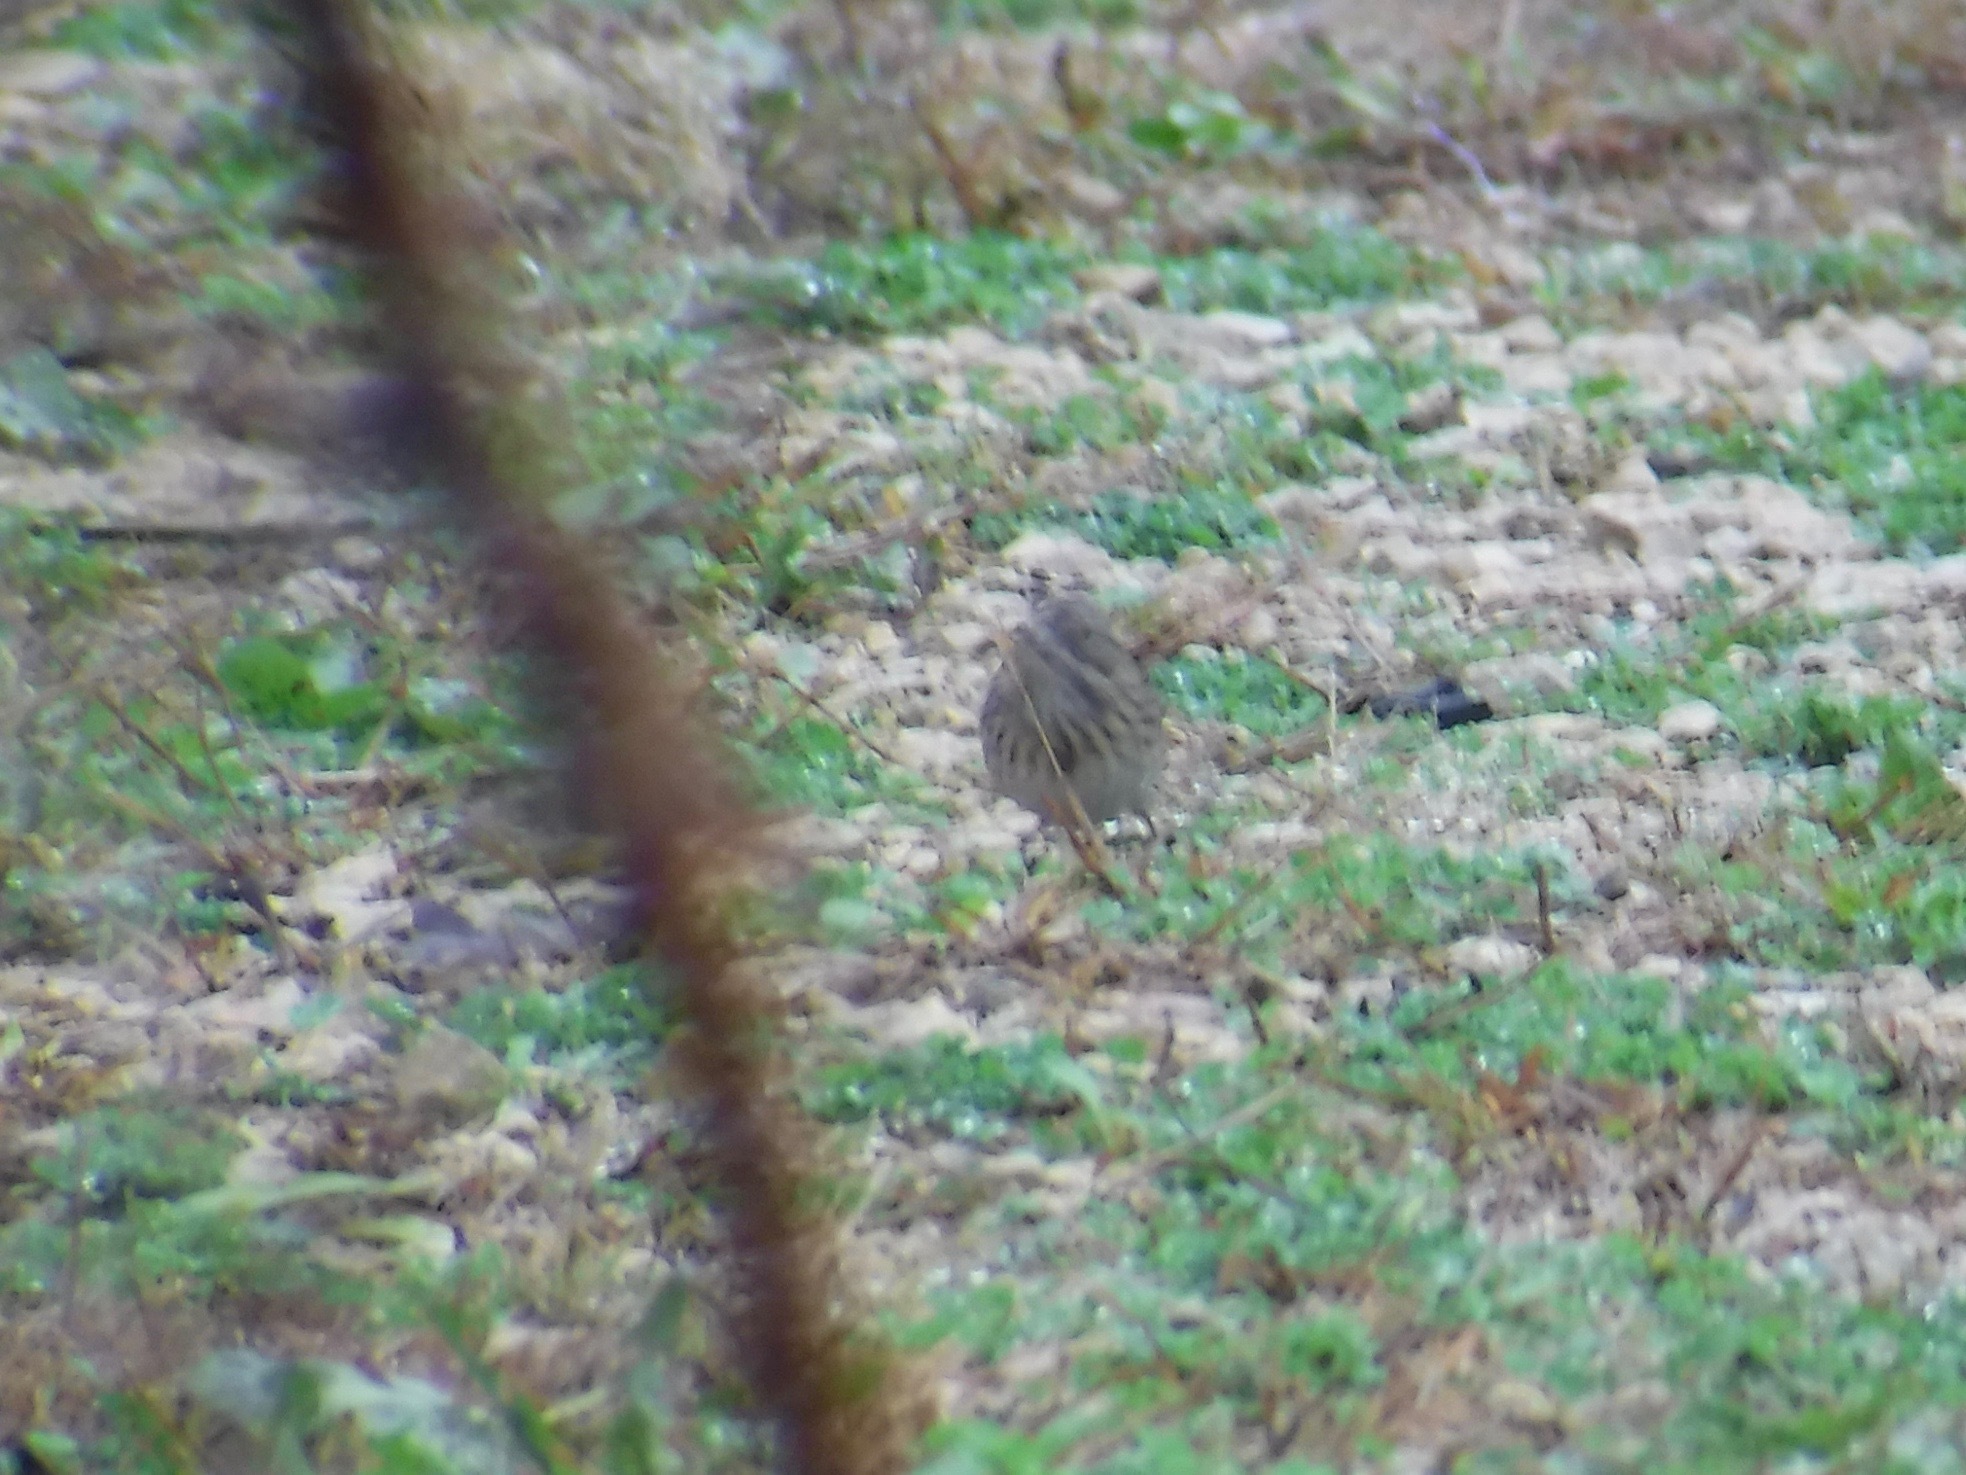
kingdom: Animalia
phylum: Chordata
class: Aves
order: Passeriformes
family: Passerellidae
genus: Melospiza
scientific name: Melospiza lincolnii
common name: Lincoln's sparrow
